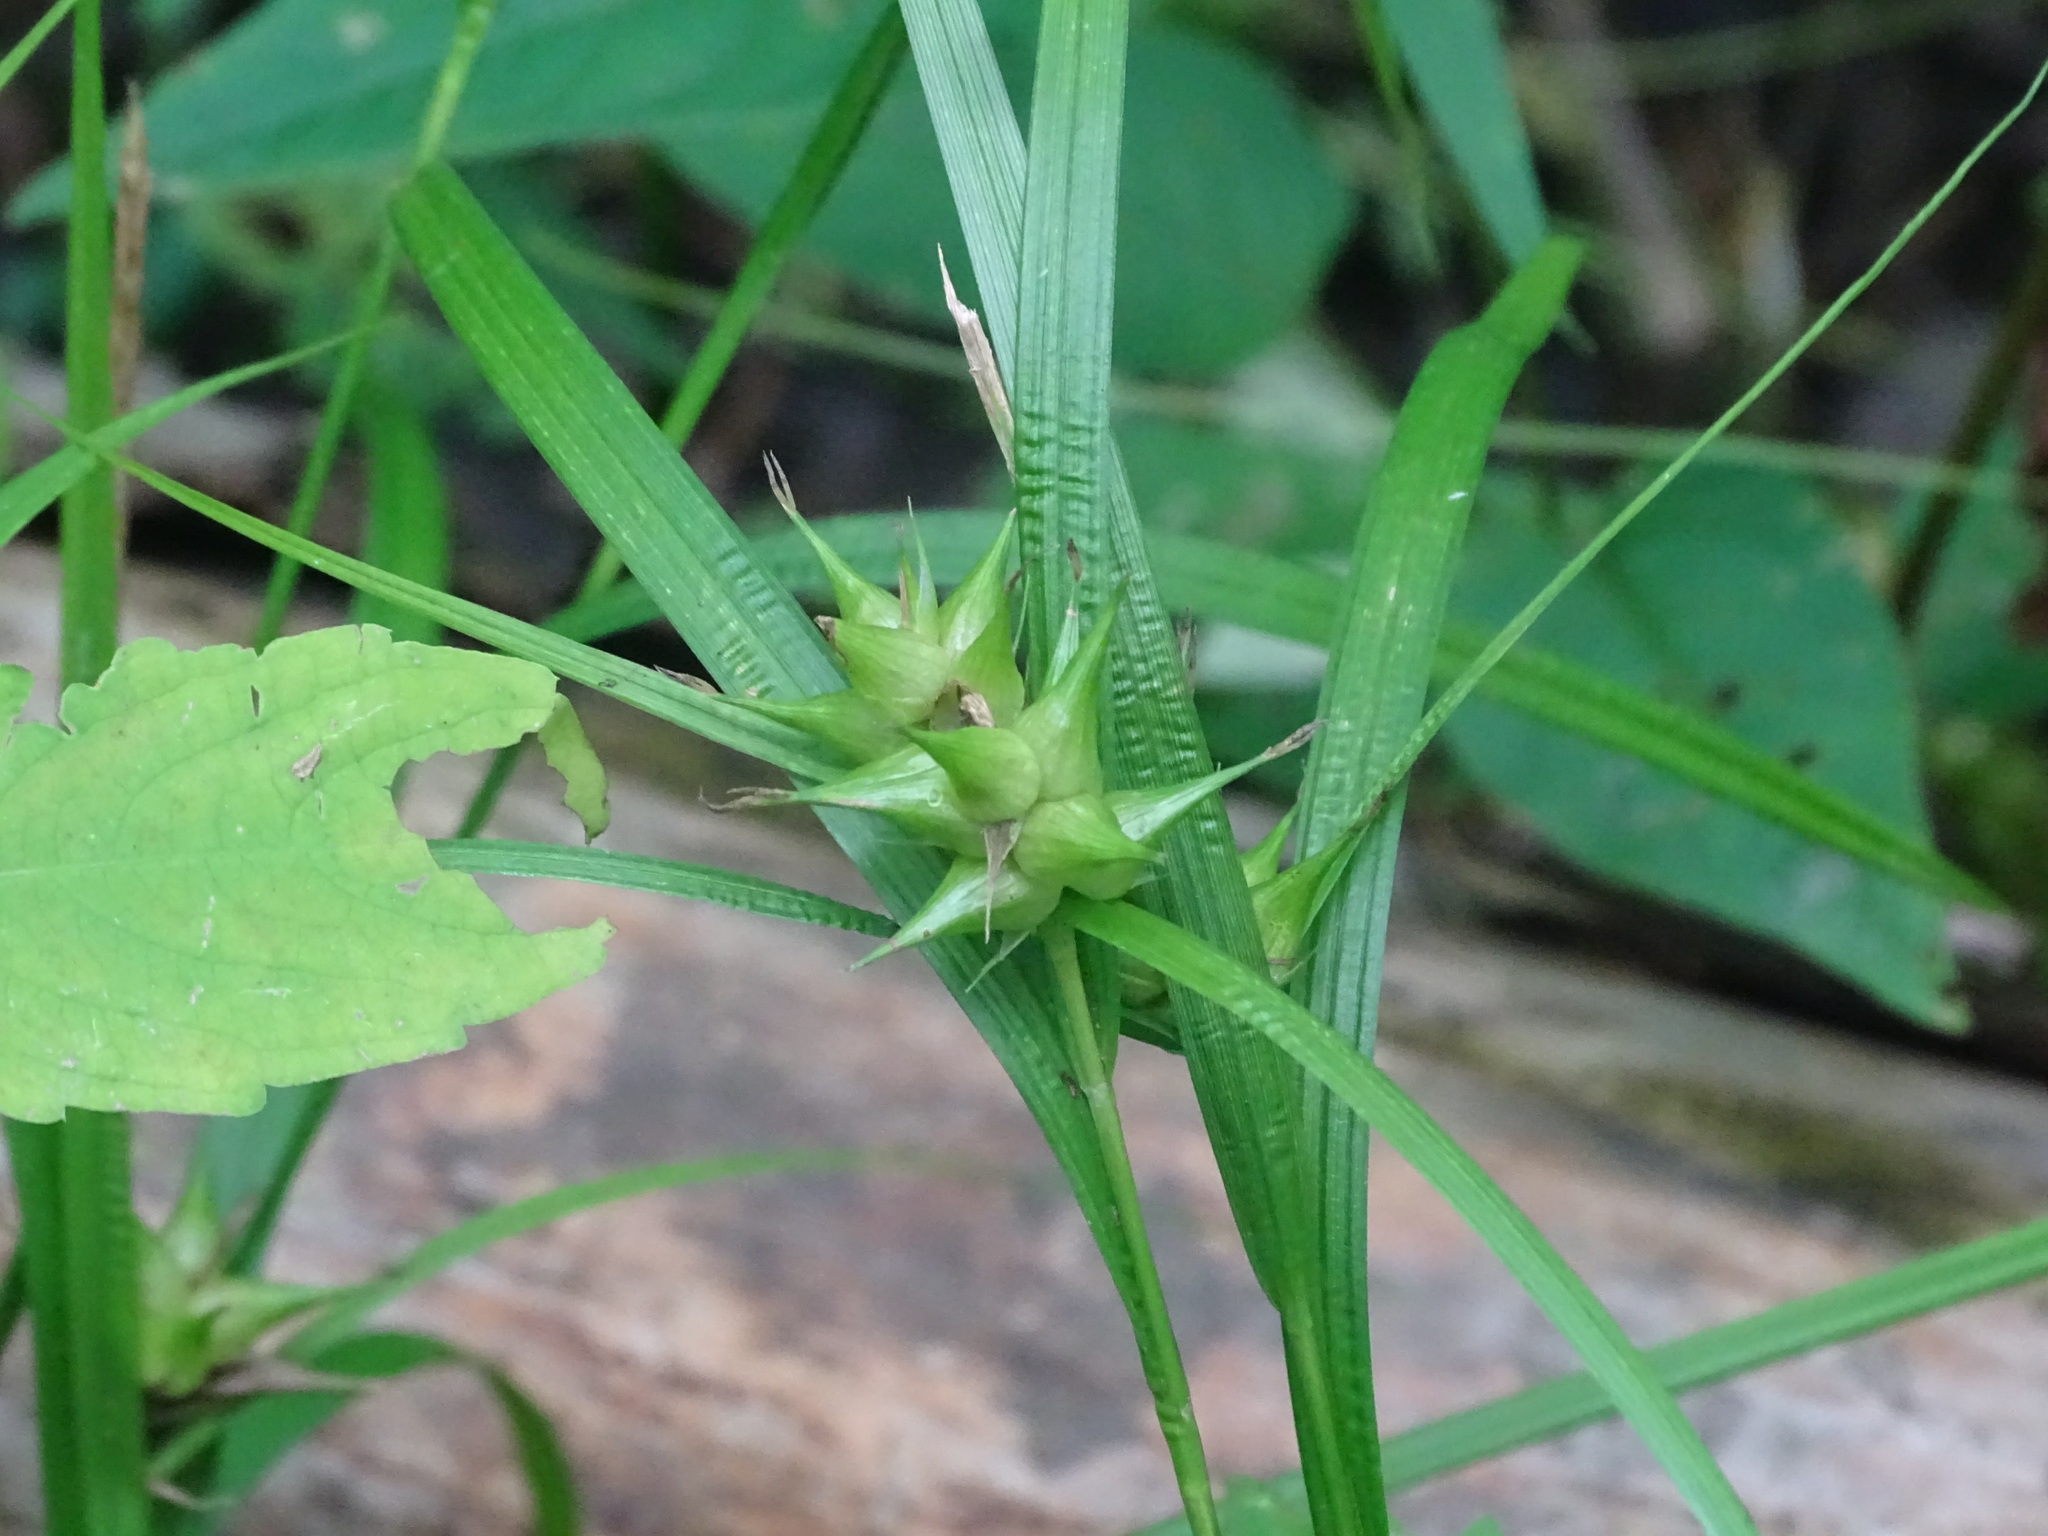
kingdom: Plantae
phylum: Tracheophyta
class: Liliopsida
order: Poales
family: Cyperaceae
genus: Carex
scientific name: Carex intumescens
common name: Greater bladder sedge
